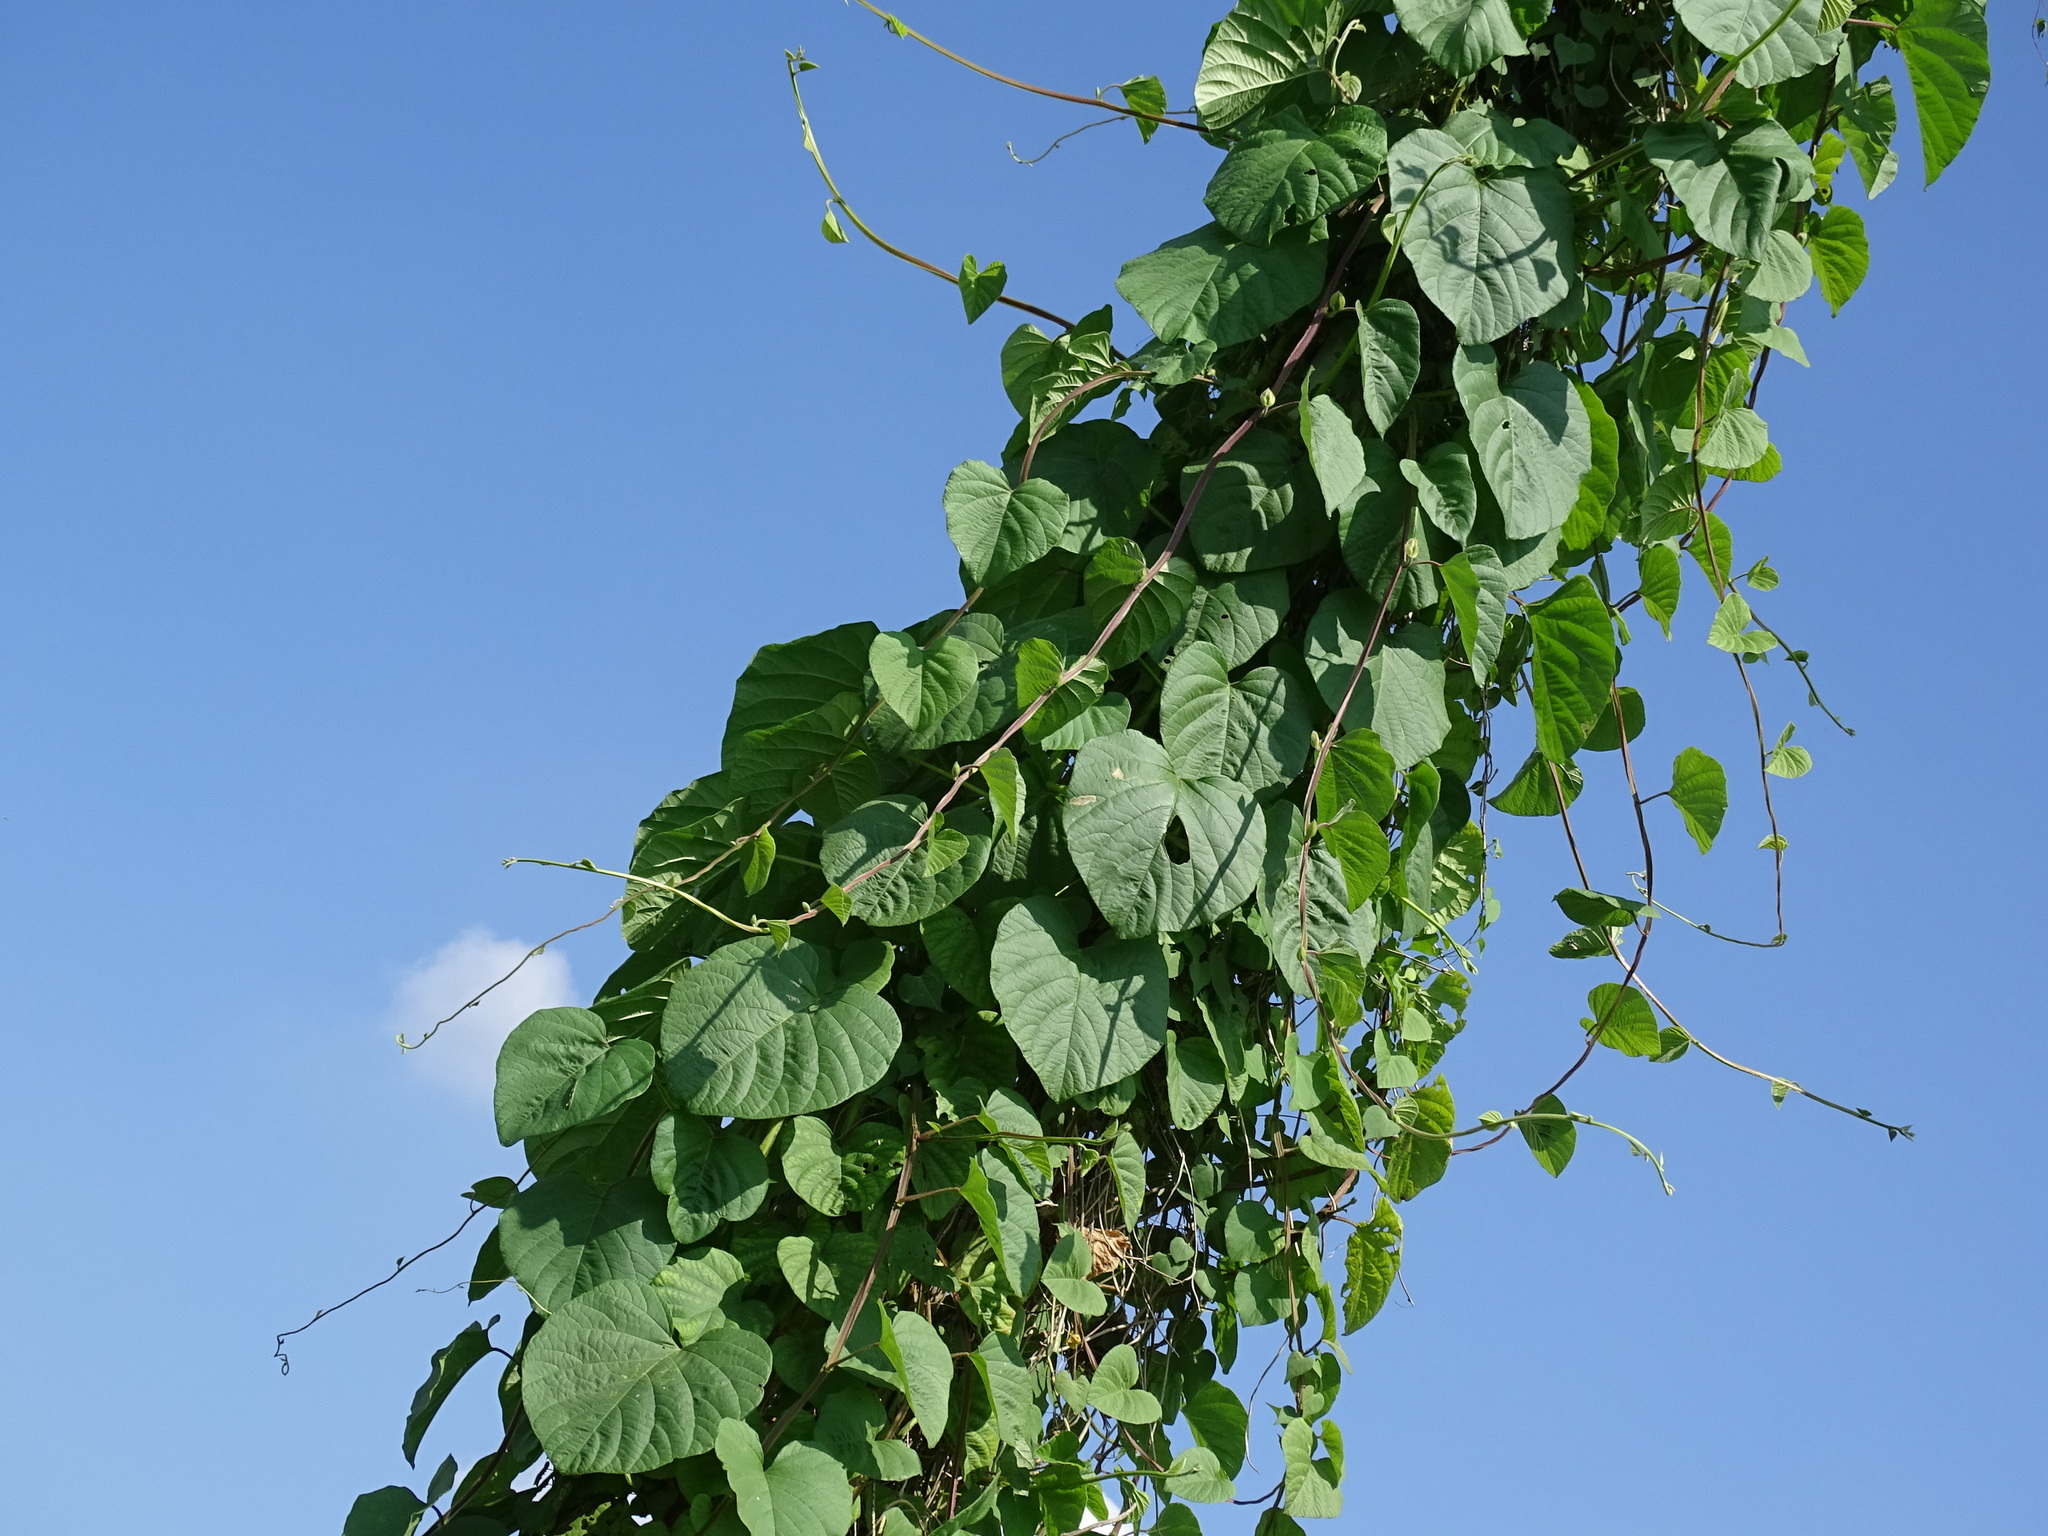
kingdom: Plantae
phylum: Tracheophyta
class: Magnoliopsida
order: Solanales
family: Convolvulaceae
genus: Operculina
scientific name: Operculina turpethum
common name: Transparent wood-rose
